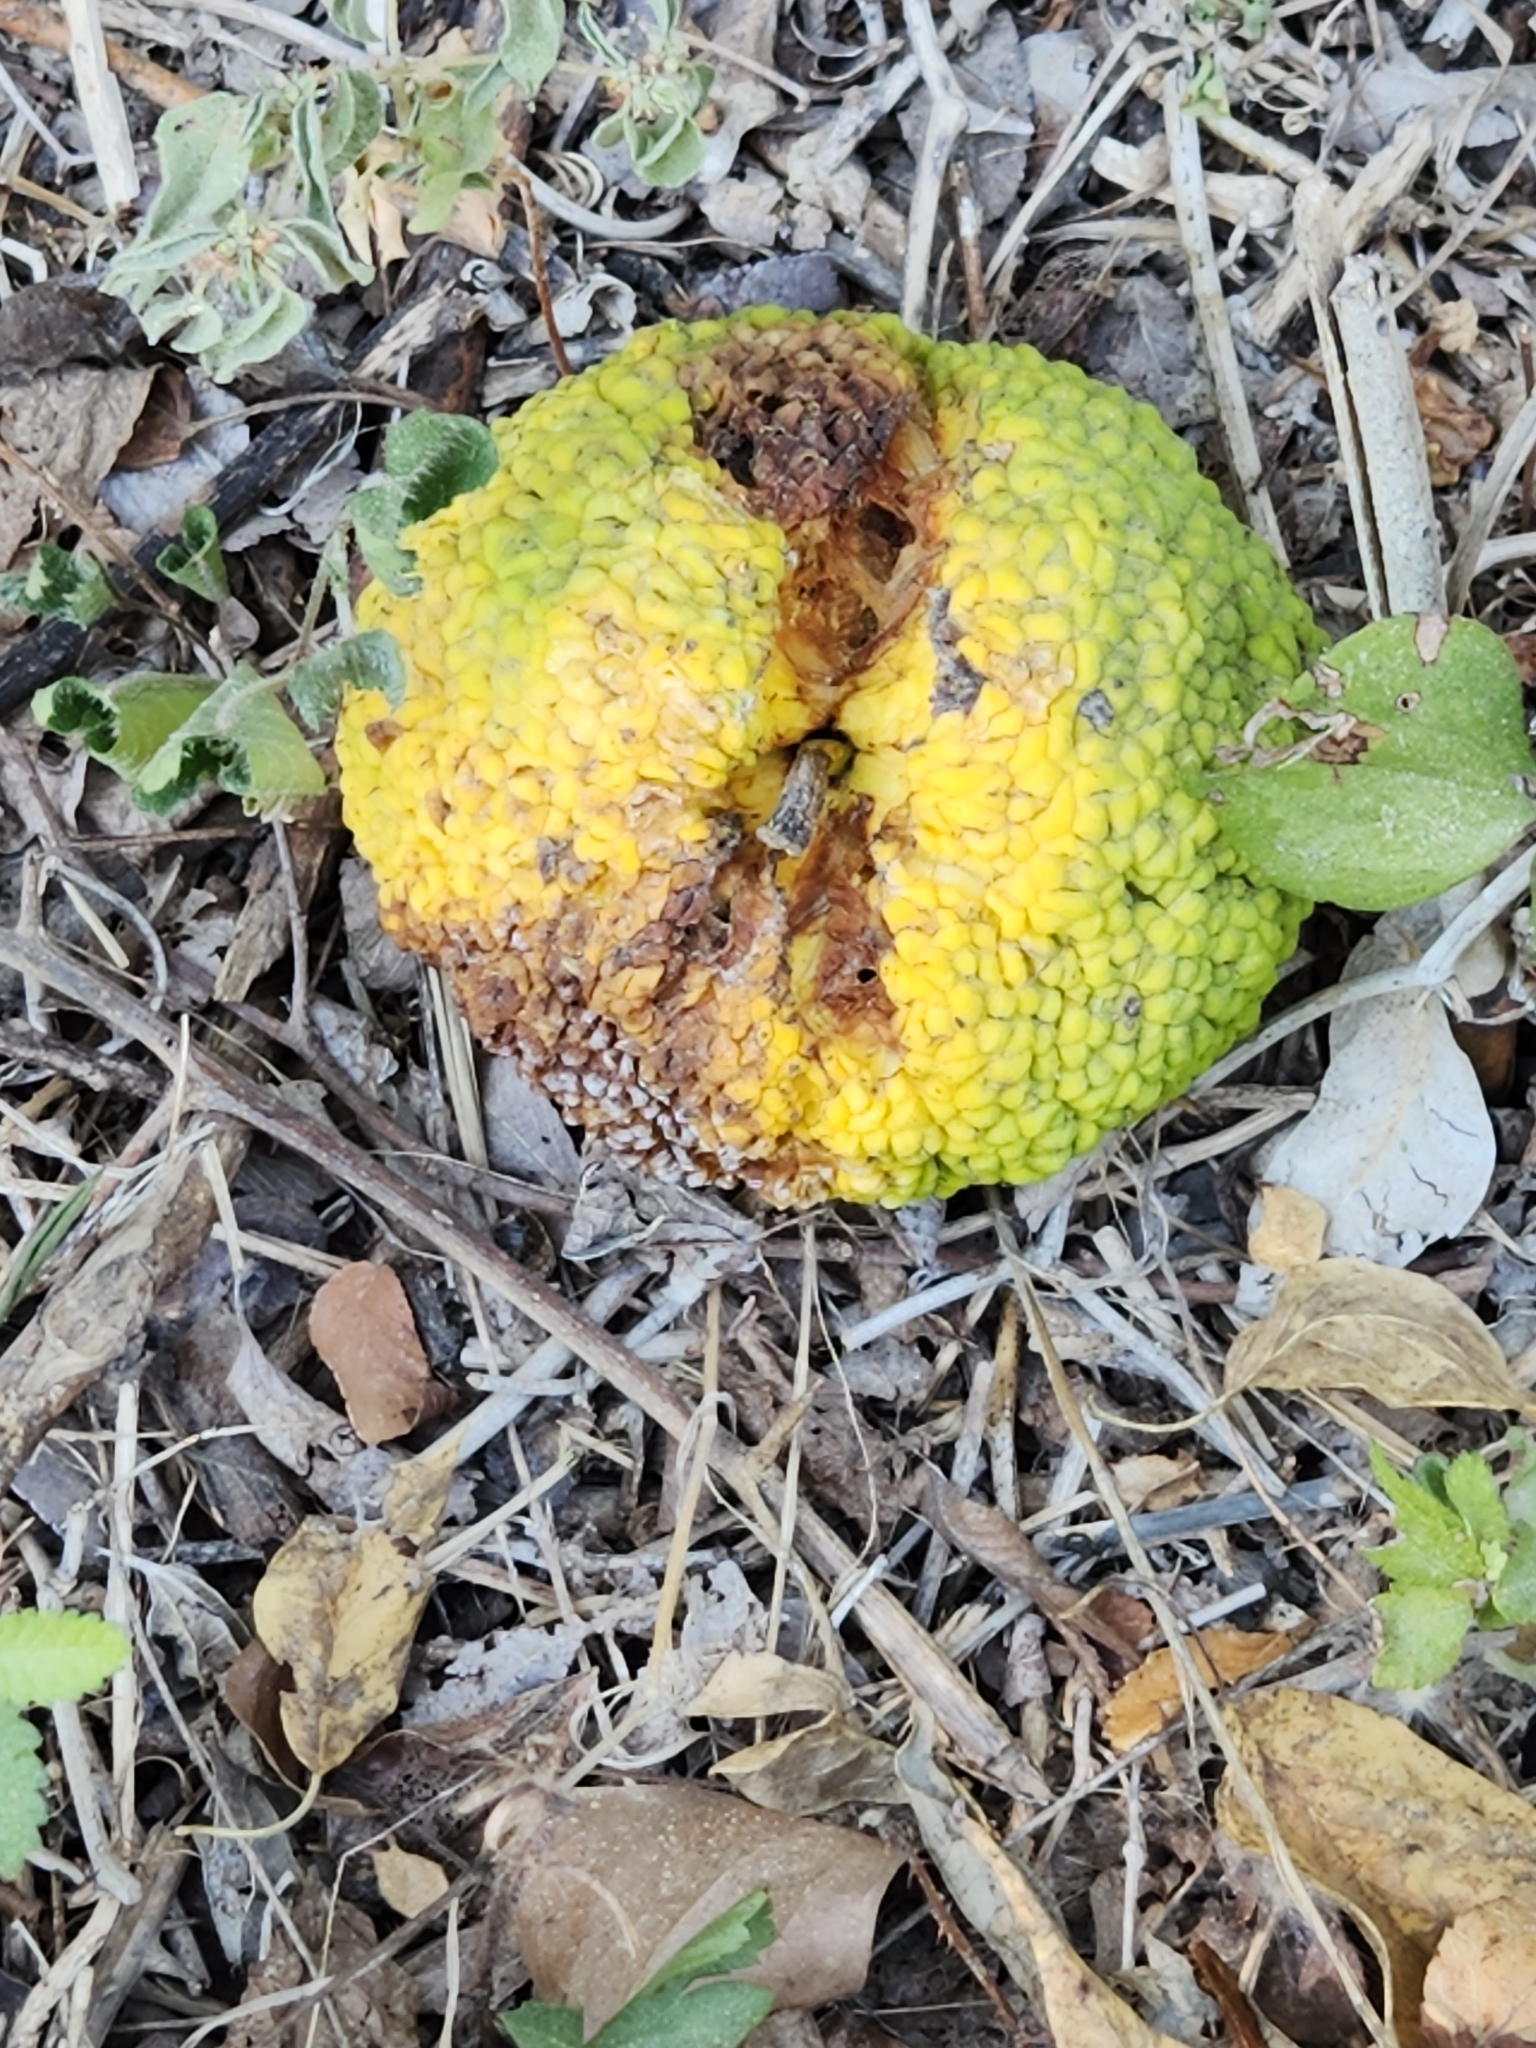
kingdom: Plantae
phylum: Tracheophyta
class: Magnoliopsida
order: Rosales
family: Moraceae
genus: Maclura
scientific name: Maclura pomifera
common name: Osage-orange
